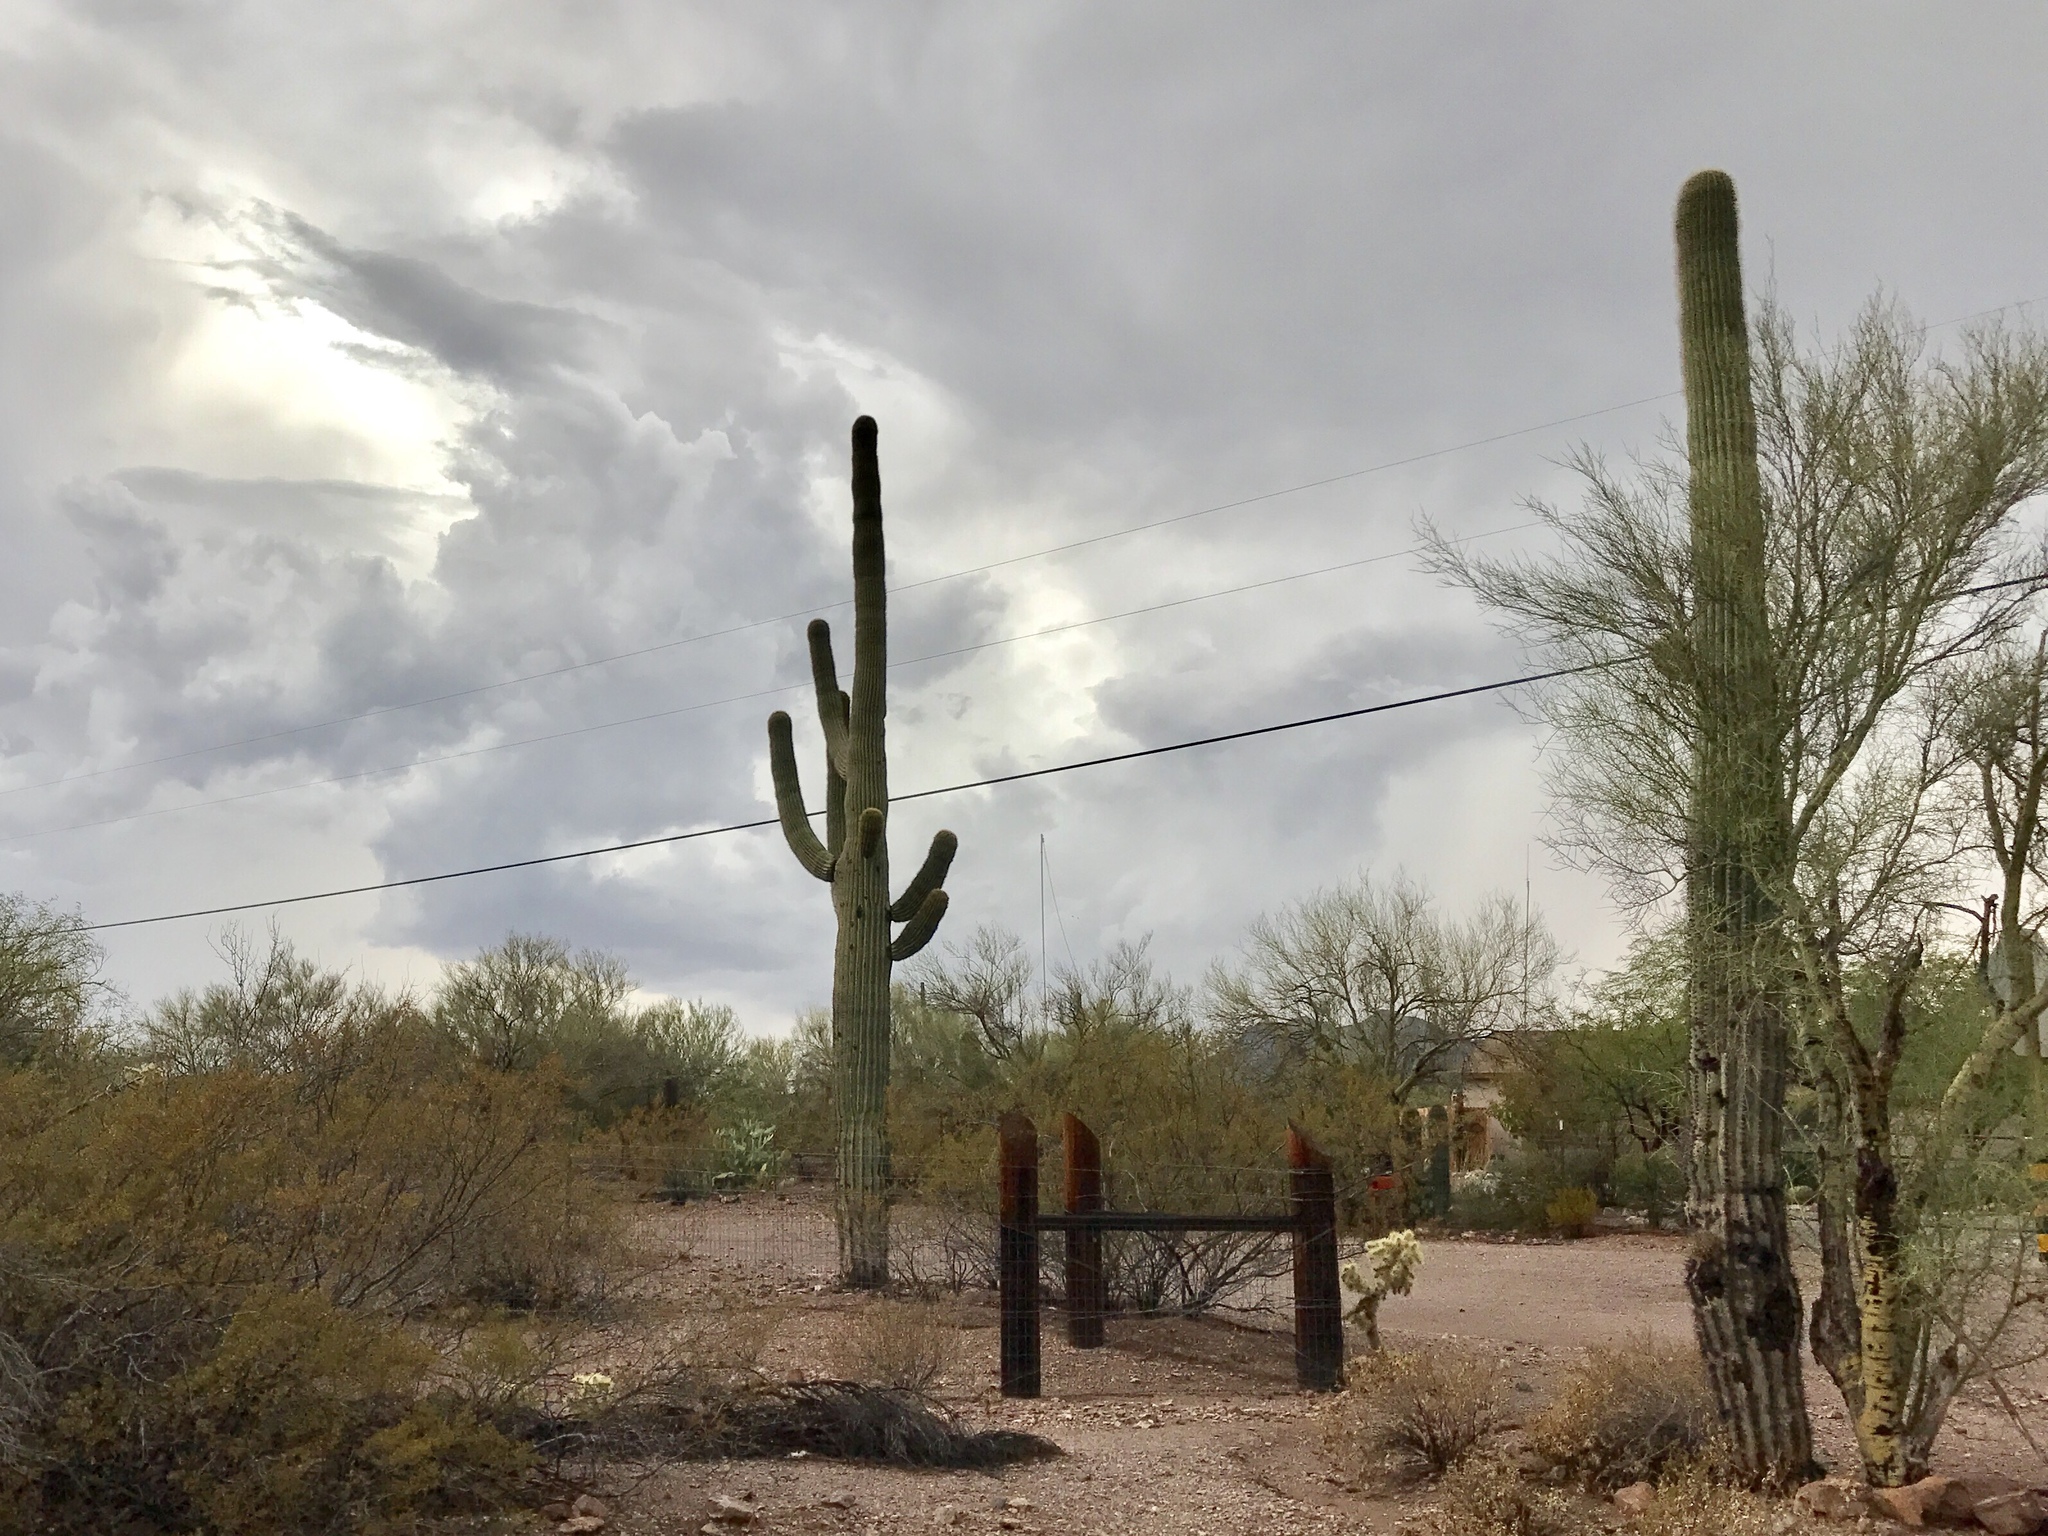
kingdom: Plantae
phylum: Tracheophyta
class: Magnoliopsida
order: Caryophyllales
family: Cactaceae
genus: Carnegiea
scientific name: Carnegiea gigantea
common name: Saguaro
